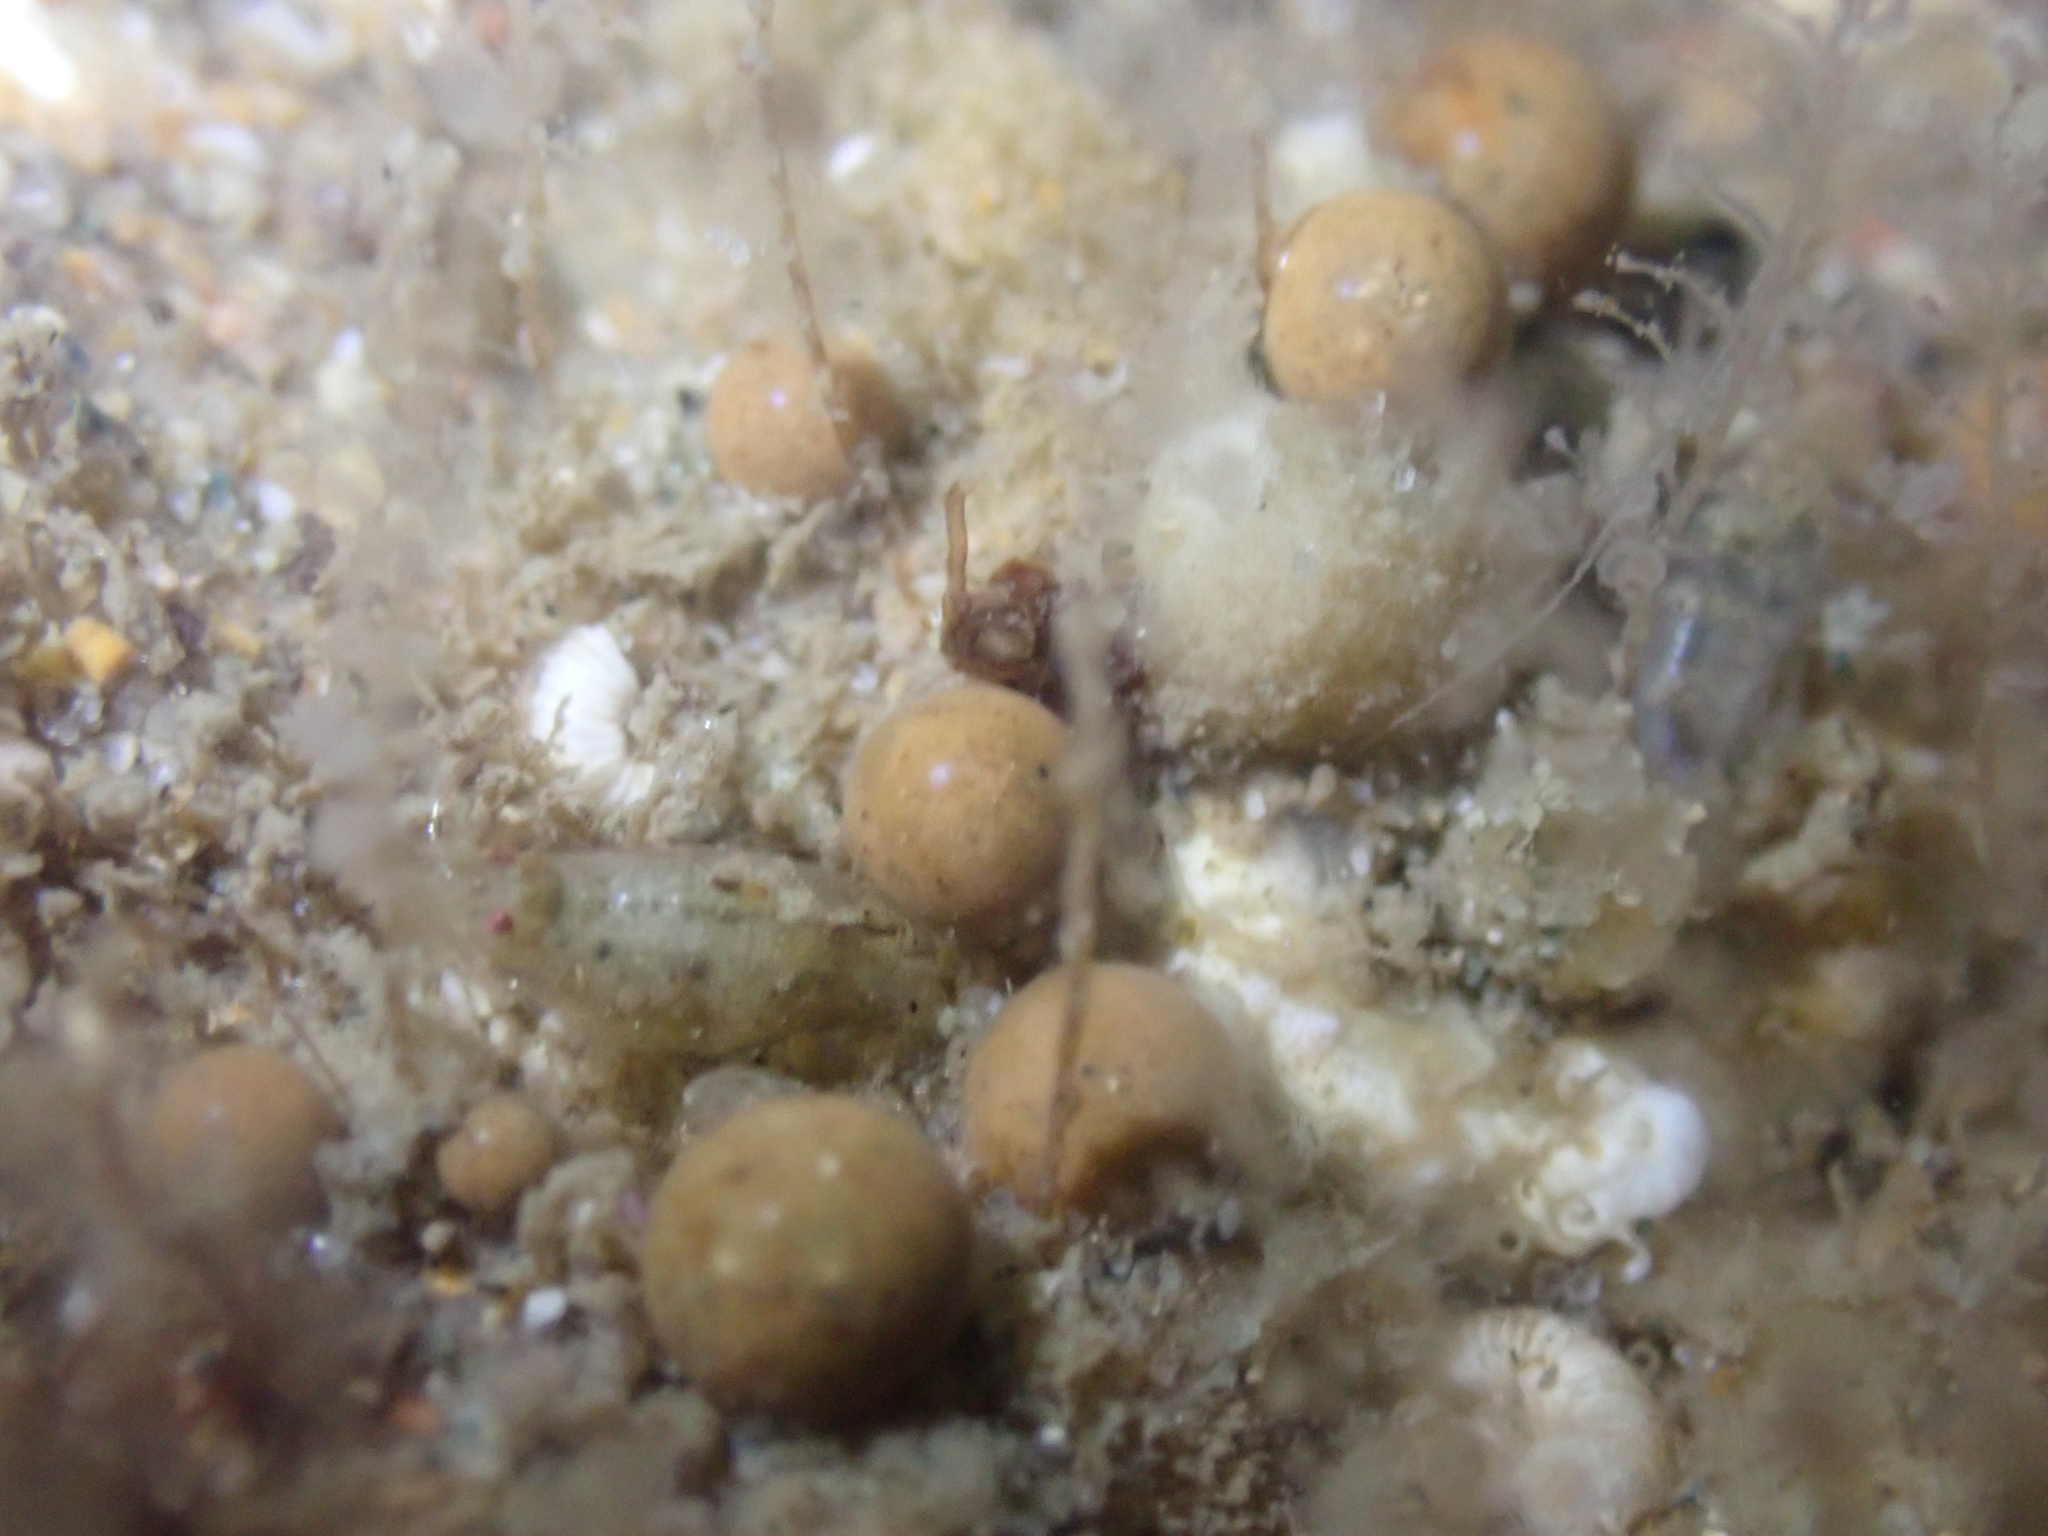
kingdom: Protozoa
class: Filosia
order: Aconchulinida
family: Gromiidae
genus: Gromia
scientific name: Gromia oviformis
